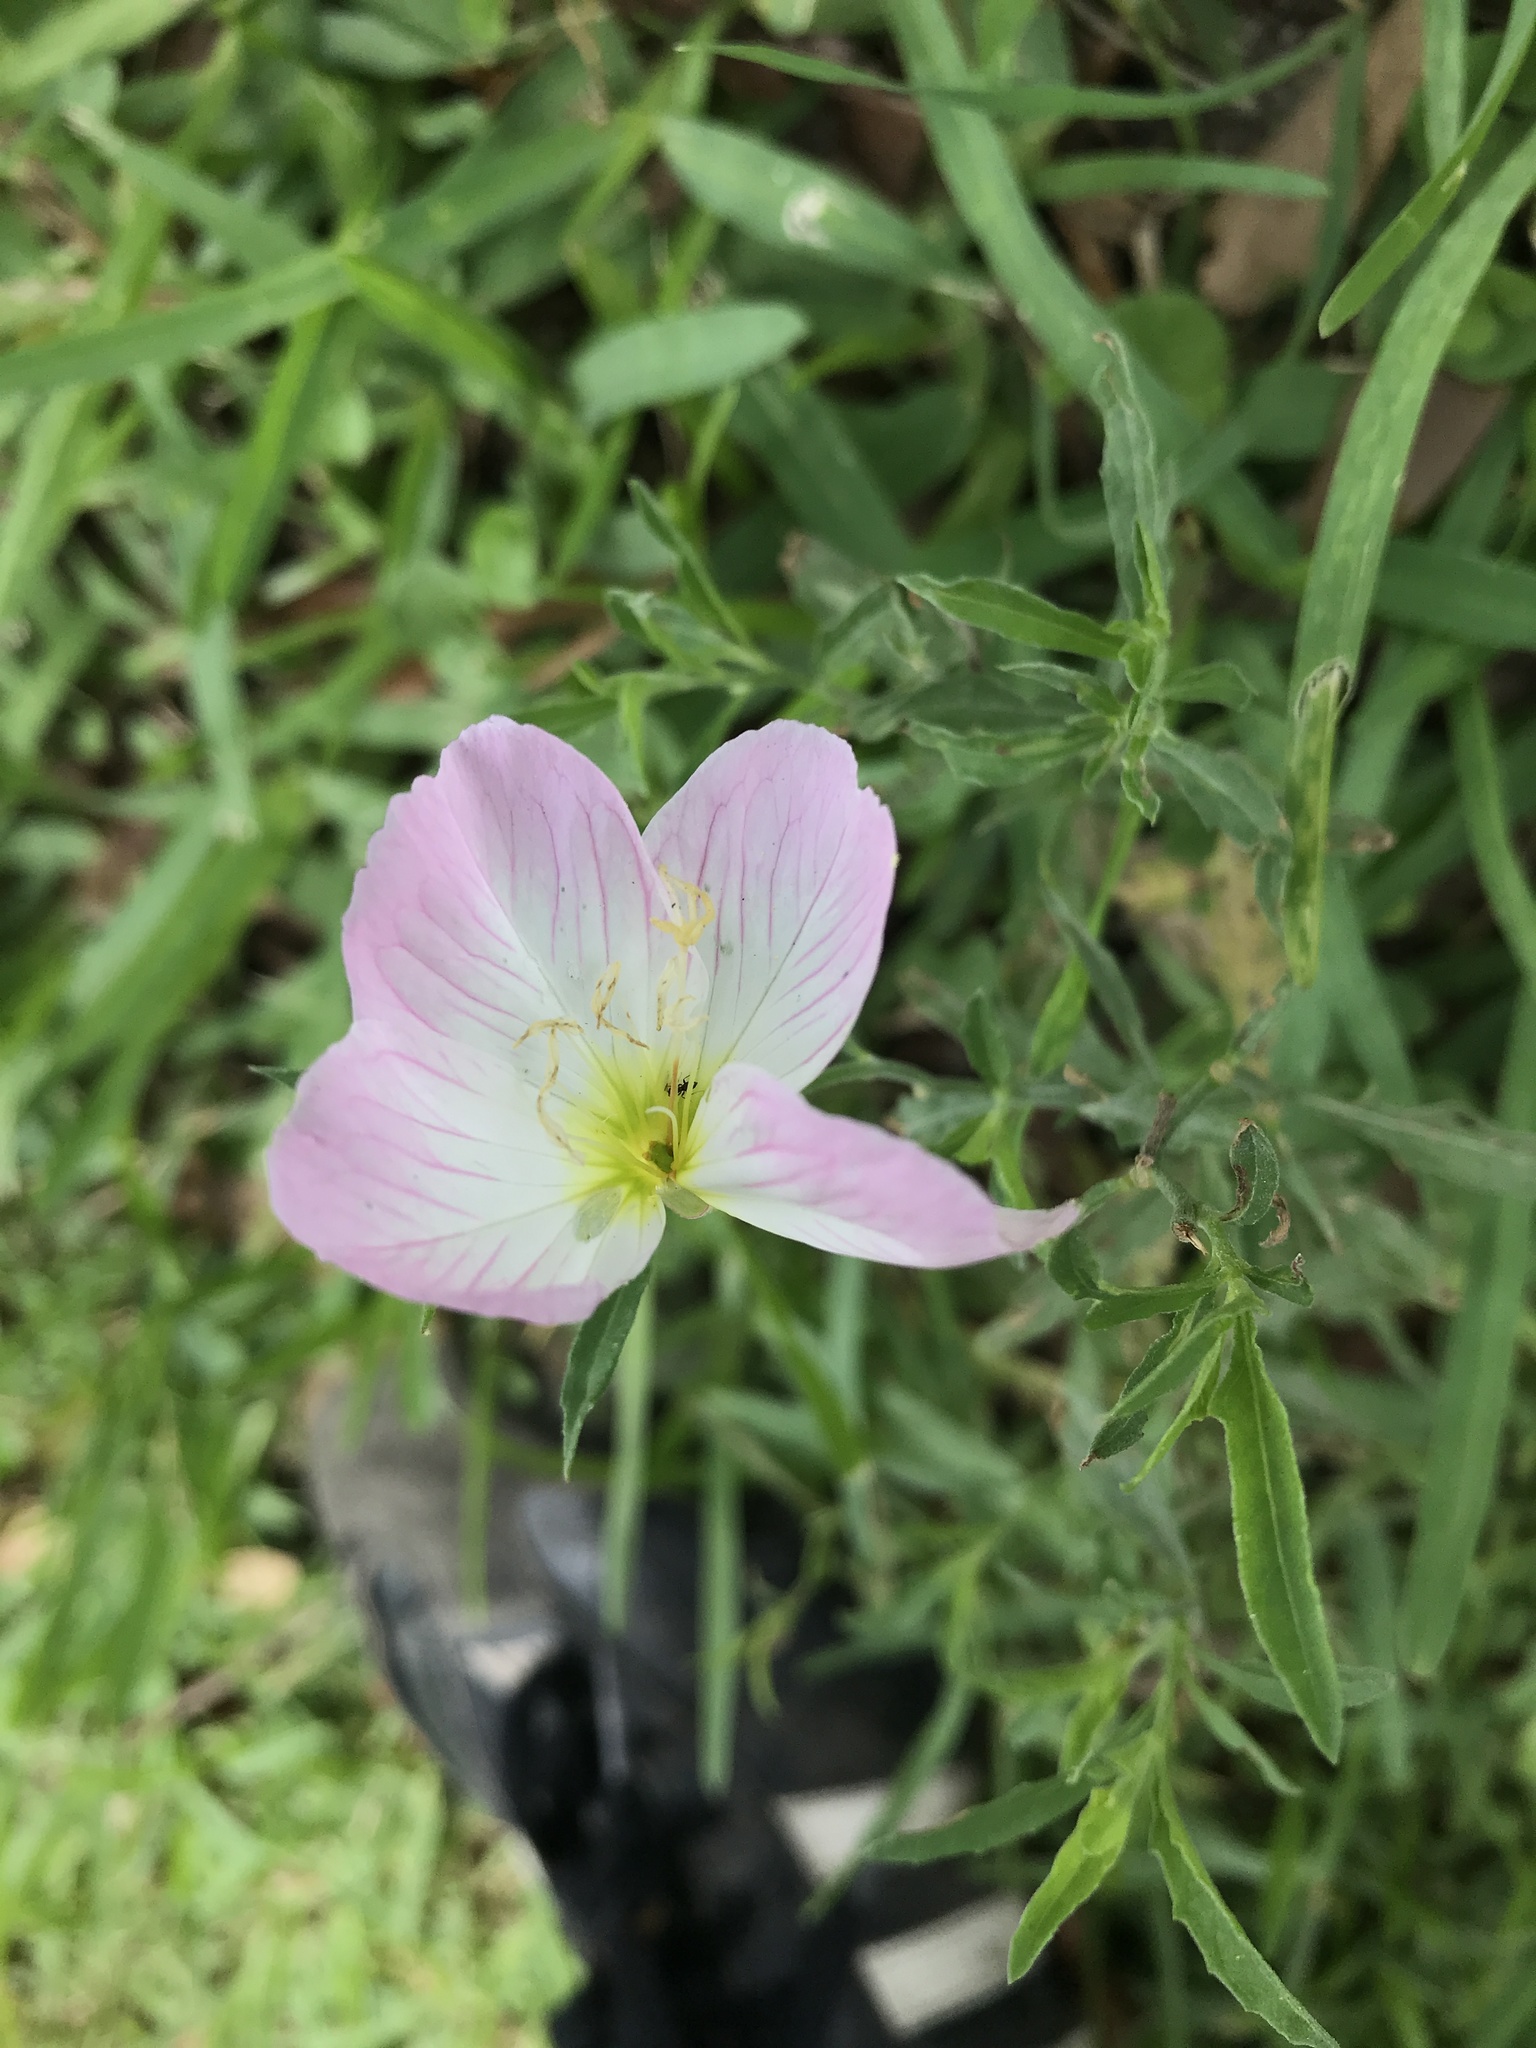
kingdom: Plantae
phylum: Tracheophyta
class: Magnoliopsida
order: Myrtales
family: Onagraceae
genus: Oenothera
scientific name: Oenothera speciosa
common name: White evening-primrose
